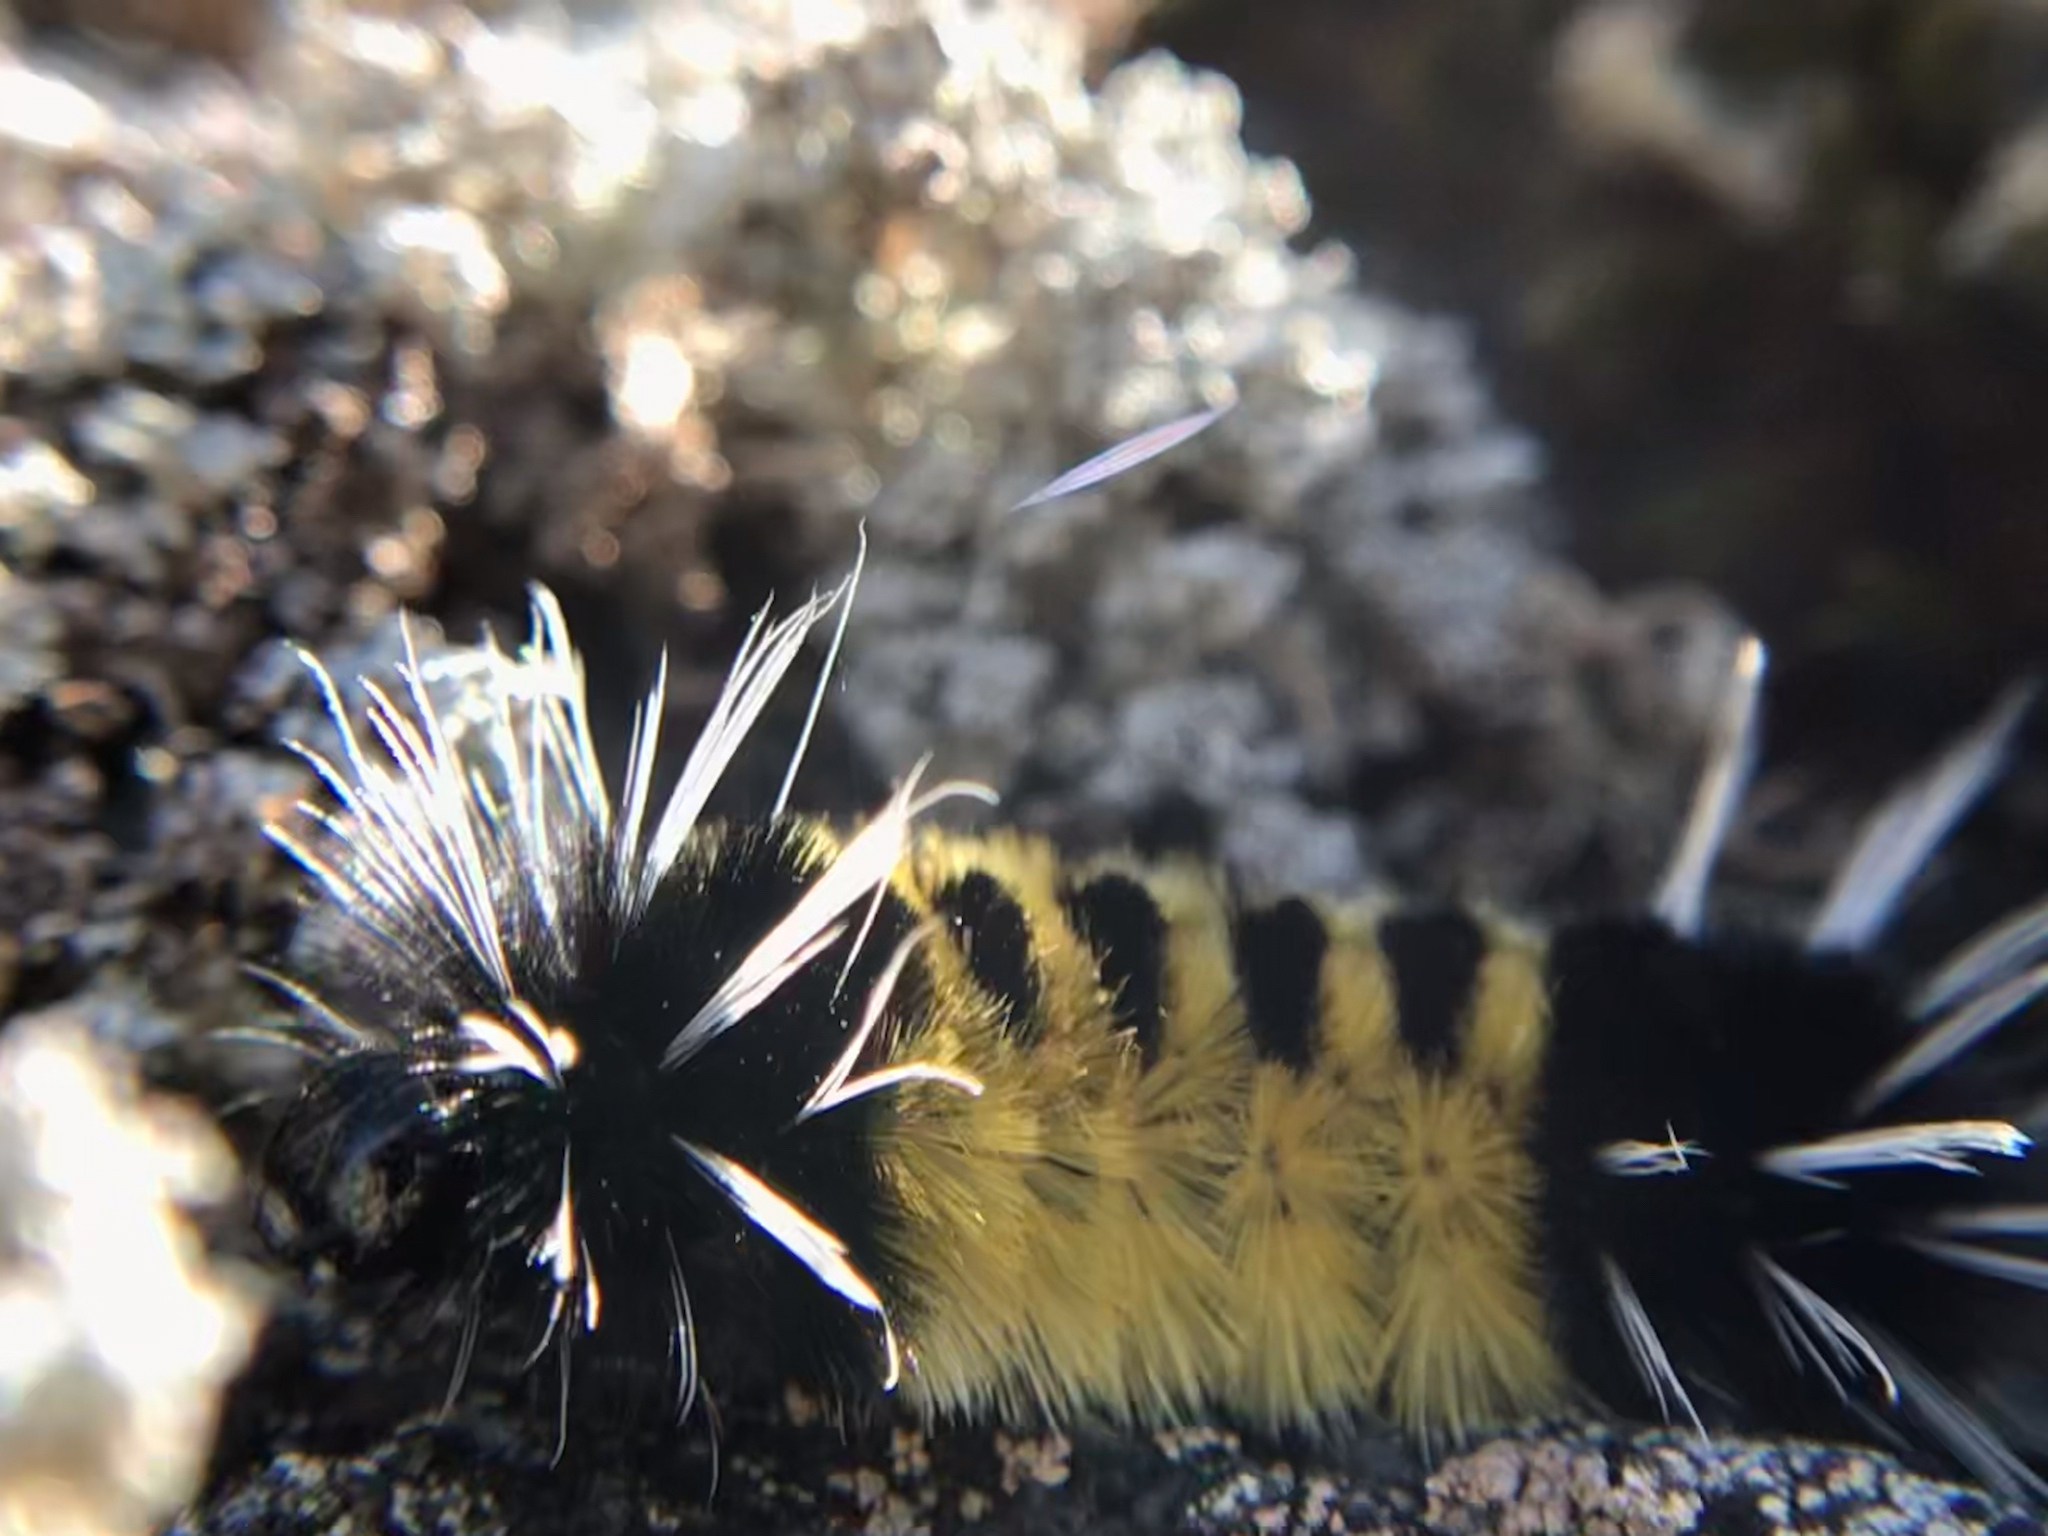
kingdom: Animalia
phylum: Arthropoda
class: Insecta
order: Lepidoptera
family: Erebidae
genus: Lophocampa
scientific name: Lophocampa maculata
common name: Spotted tussock moth
